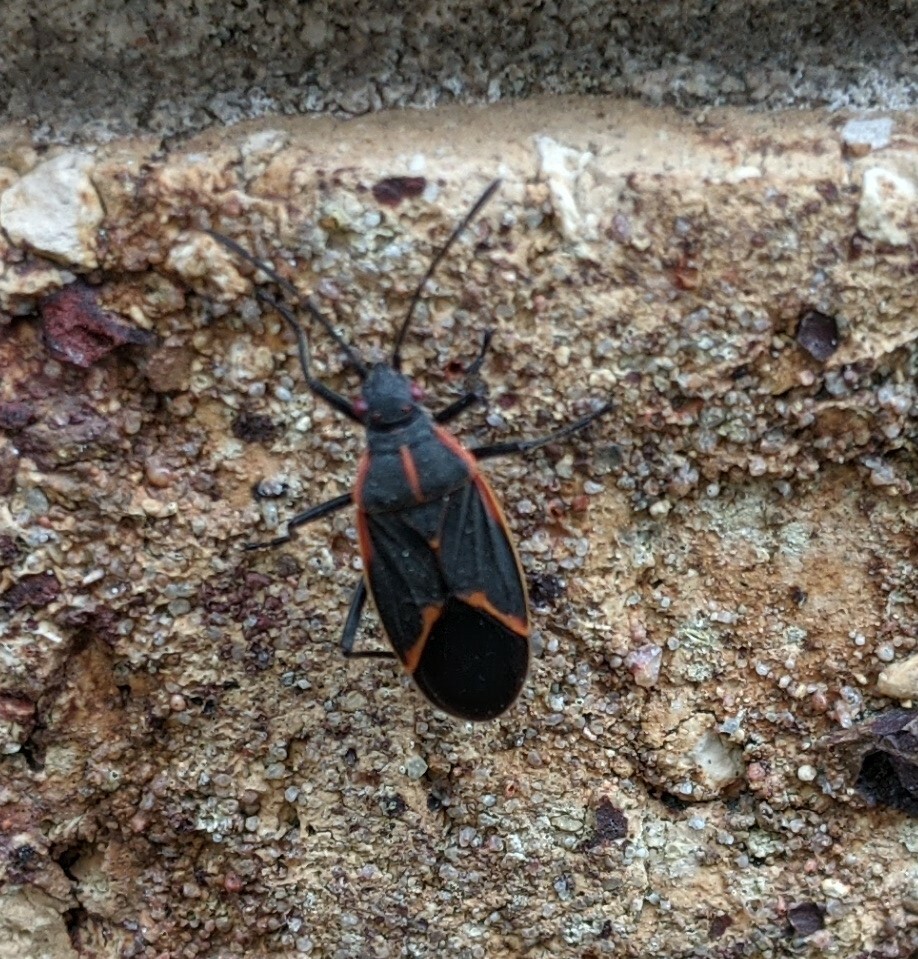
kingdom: Animalia
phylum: Arthropoda
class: Insecta
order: Hemiptera
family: Rhopalidae
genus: Boisea
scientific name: Boisea trivittata
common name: Boxelder bug
